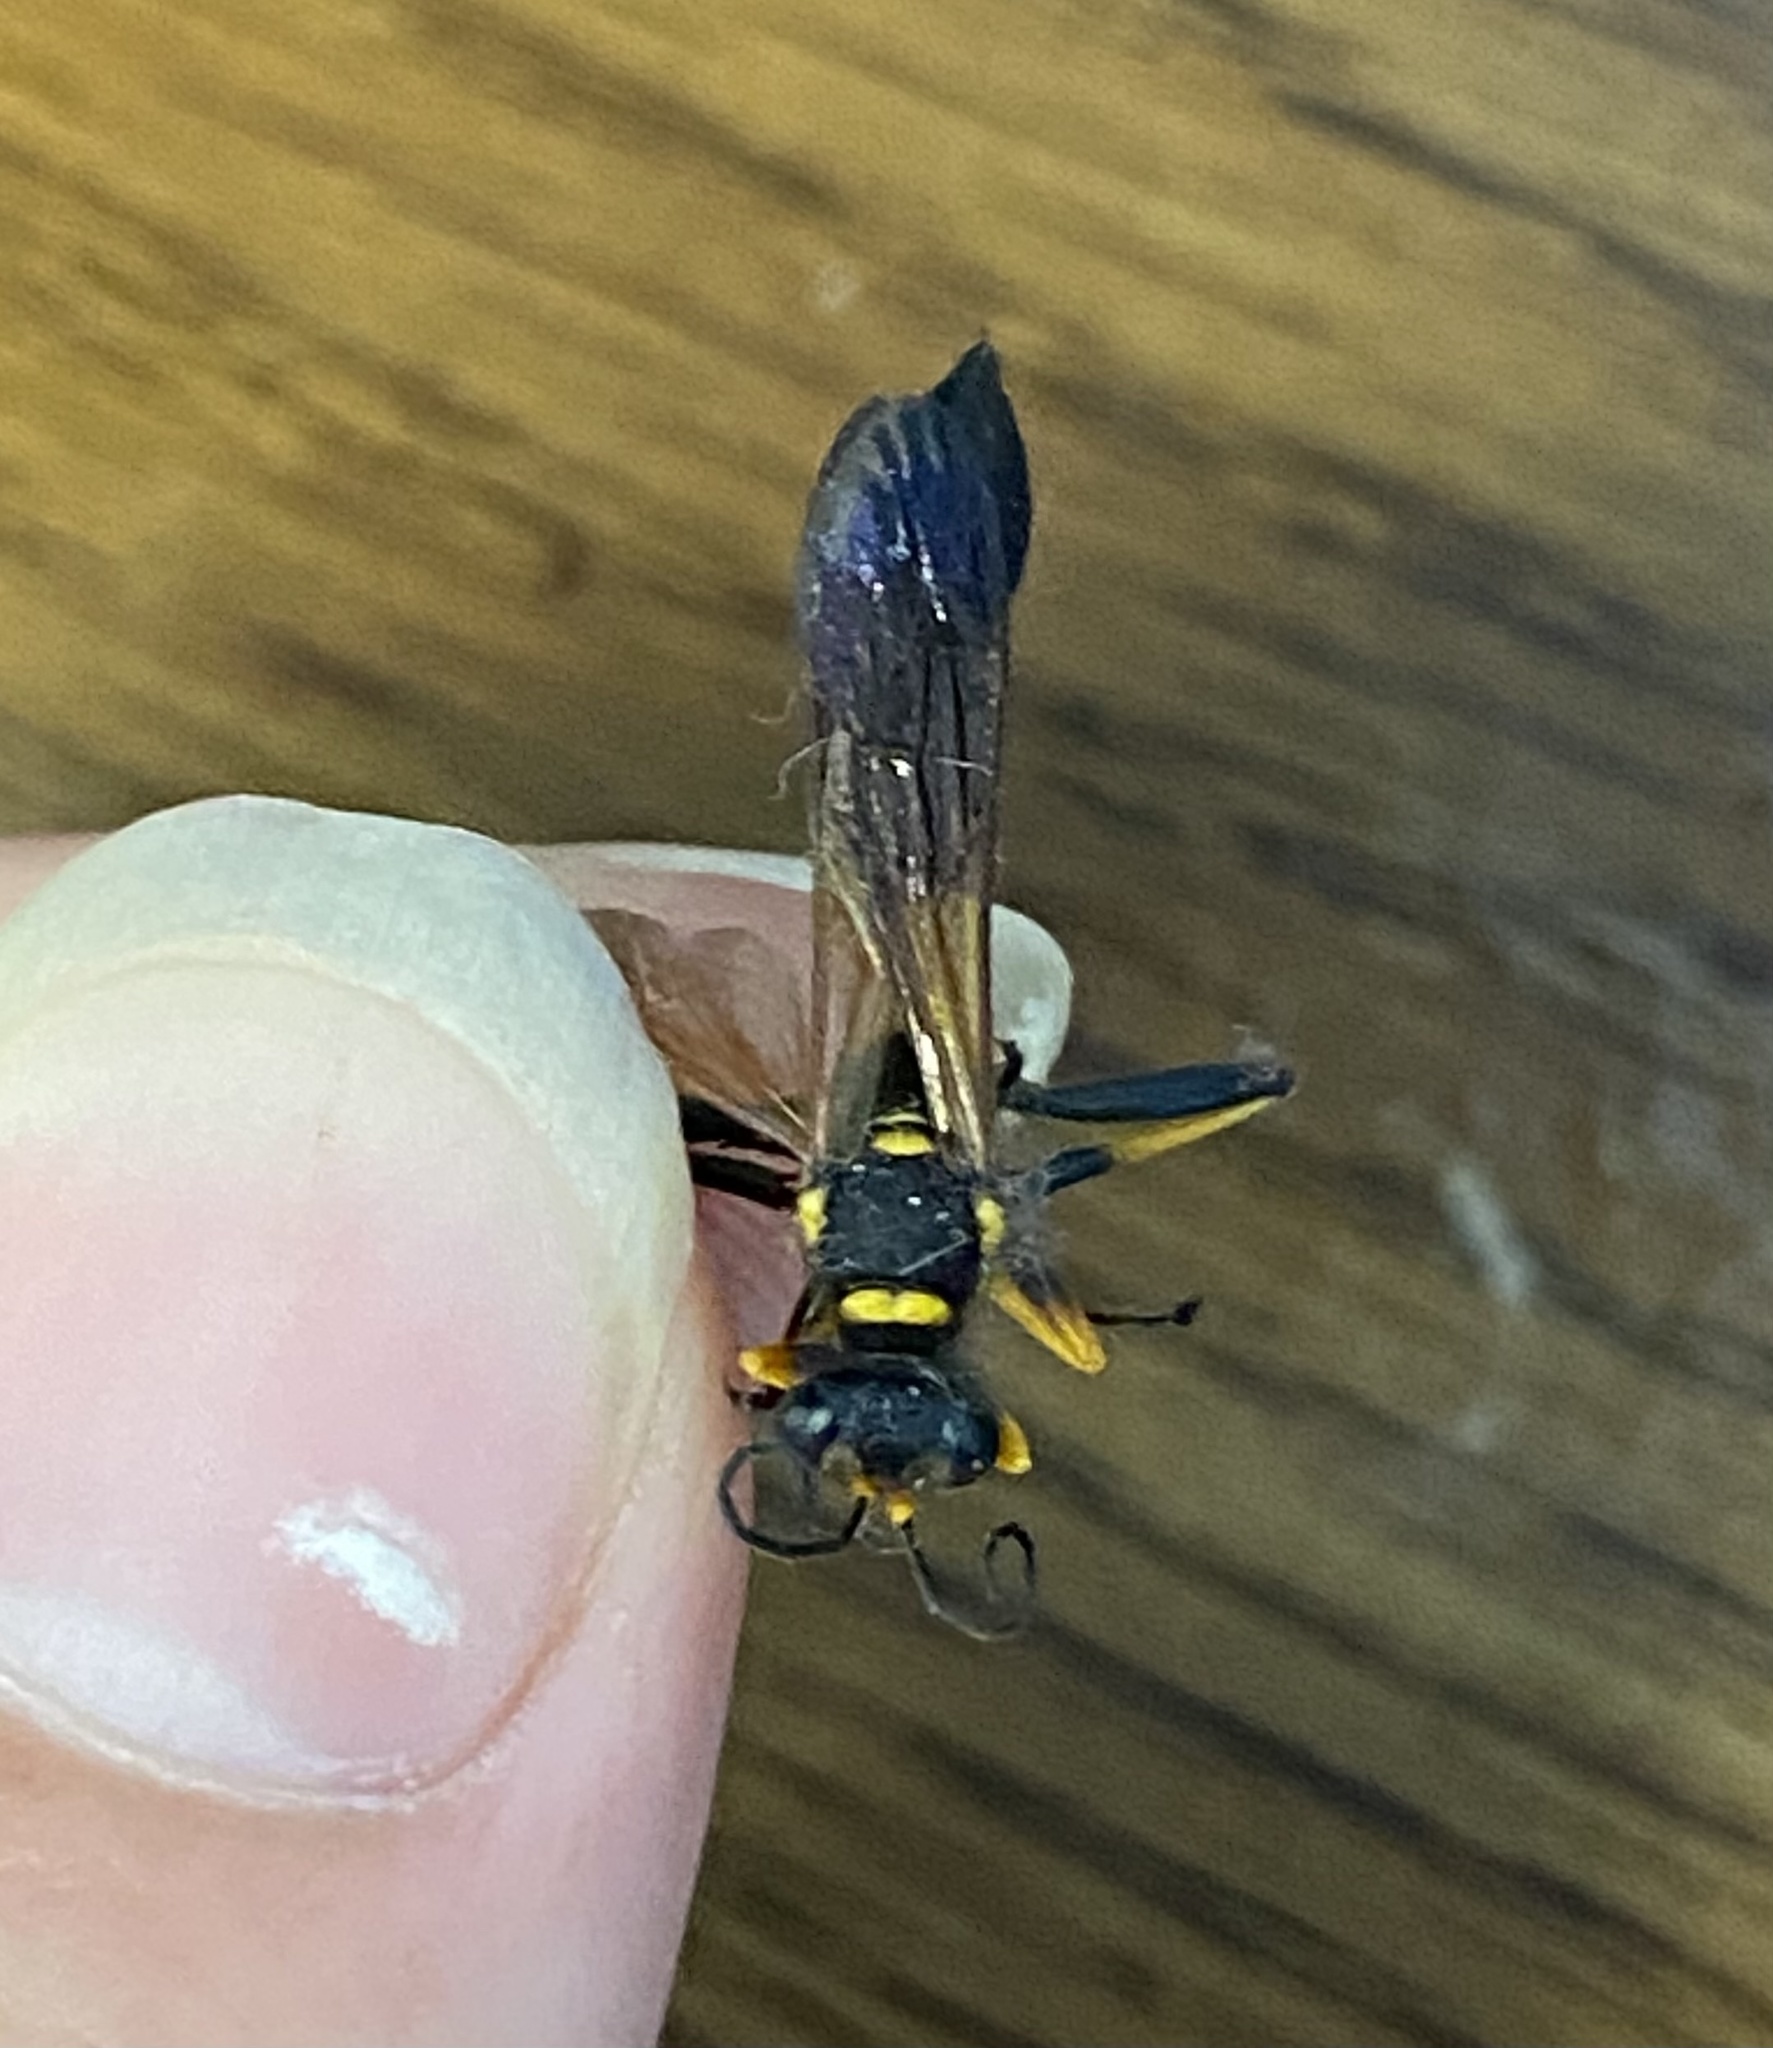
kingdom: Animalia
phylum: Arthropoda
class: Insecta
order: Hymenoptera
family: Sphecidae
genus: Sceliphron
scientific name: Sceliphron caementarium
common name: Mud dauber
